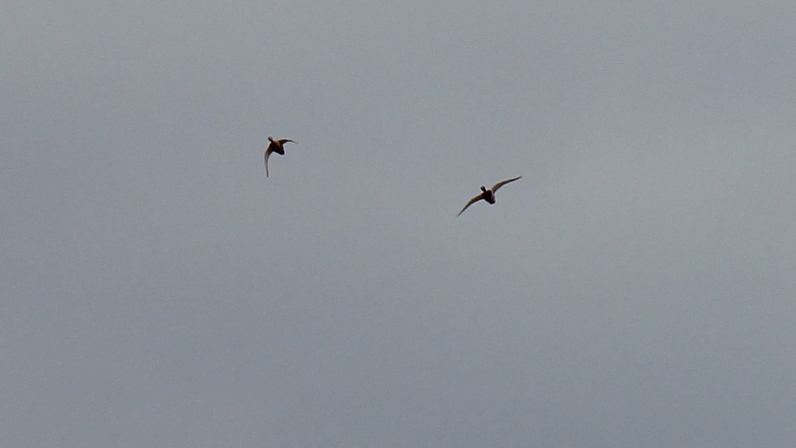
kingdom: Animalia
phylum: Chordata
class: Aves
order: Anseriformes
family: Anatidae
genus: Anas
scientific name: Anas platyrhynchos
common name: Mallard
